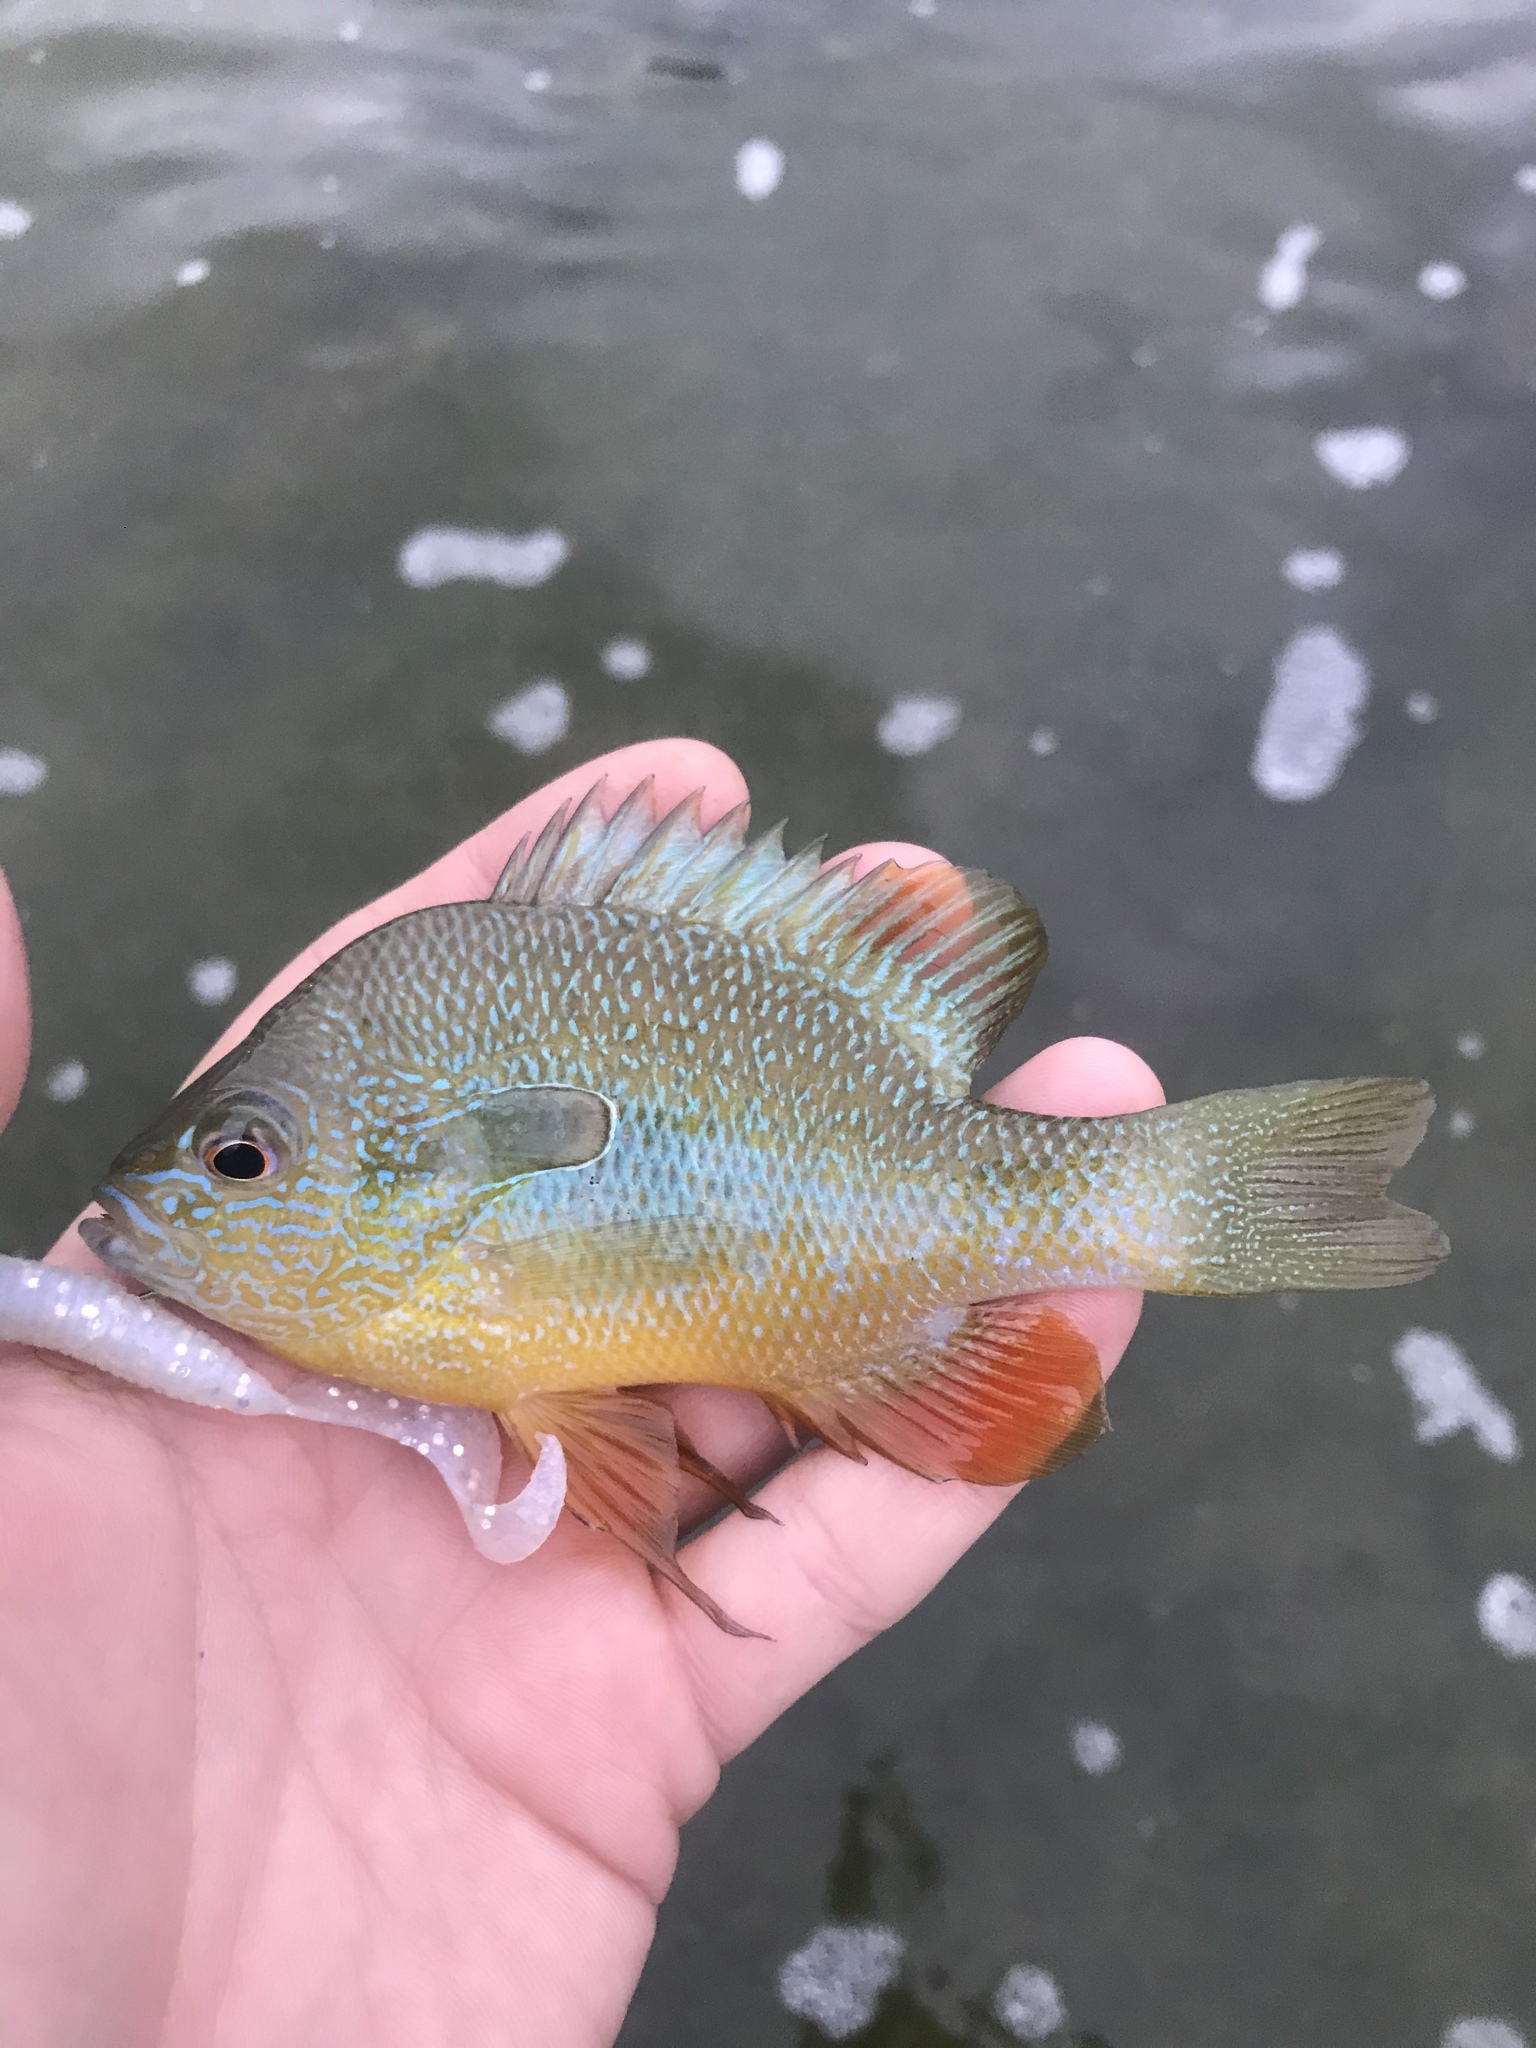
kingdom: Animalia
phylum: Chordata
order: Perciformes
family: Centrarchidae
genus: Lepomis
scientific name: Lepomis megalotis
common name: Longear sunfish
